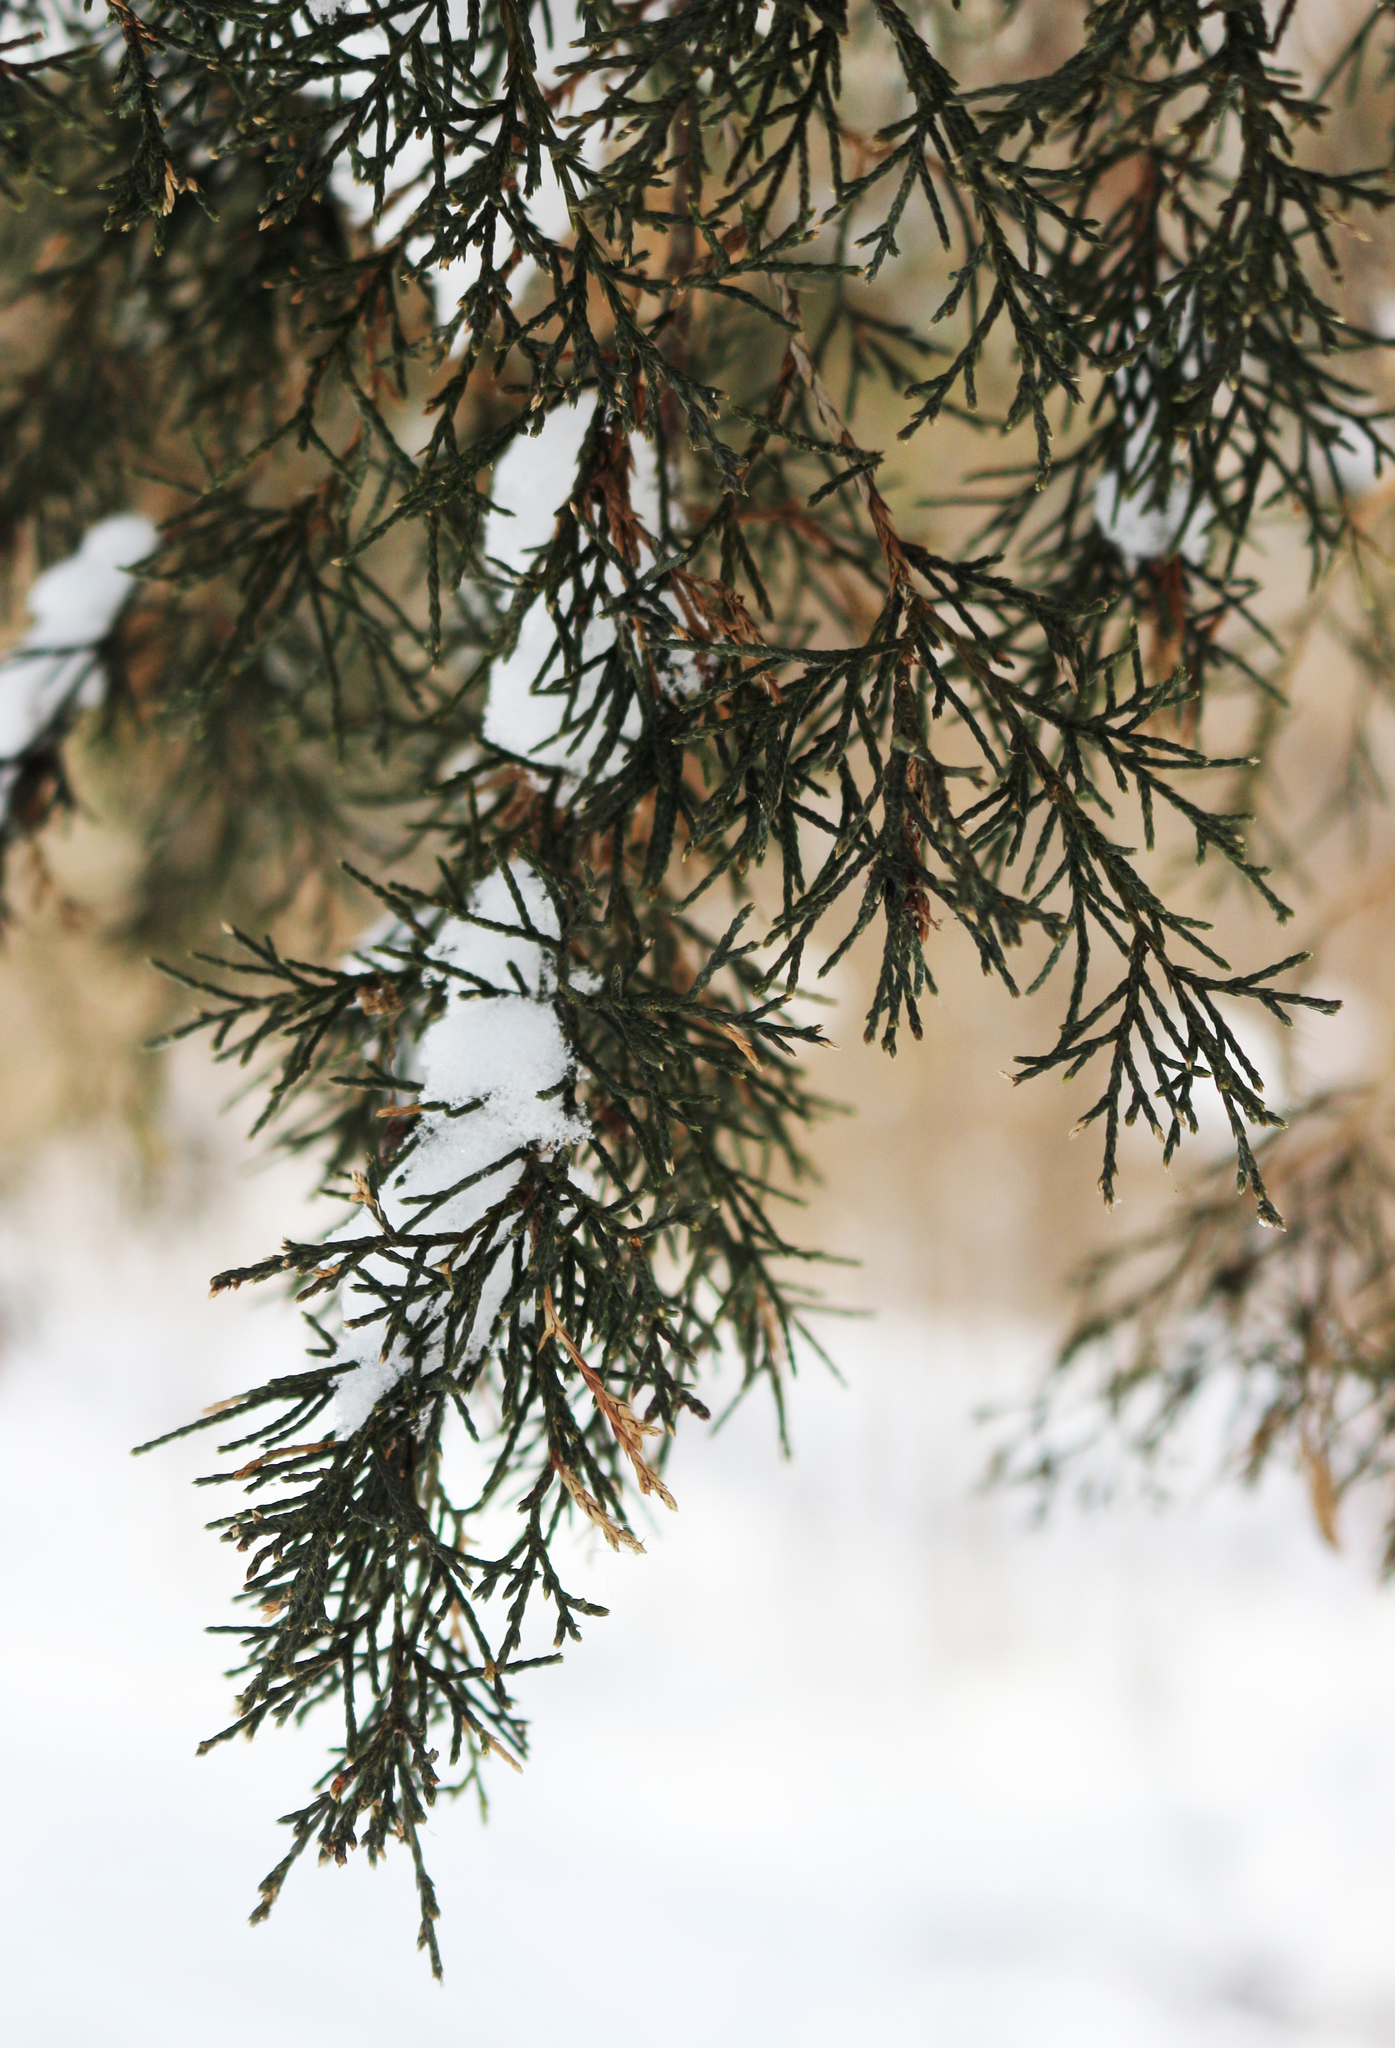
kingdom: Plantae
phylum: Tracheophyta
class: Pinopsida
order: Pinales
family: Cupressaceae
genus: Juniperus
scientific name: Juniperus virginiana
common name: Red juniper
